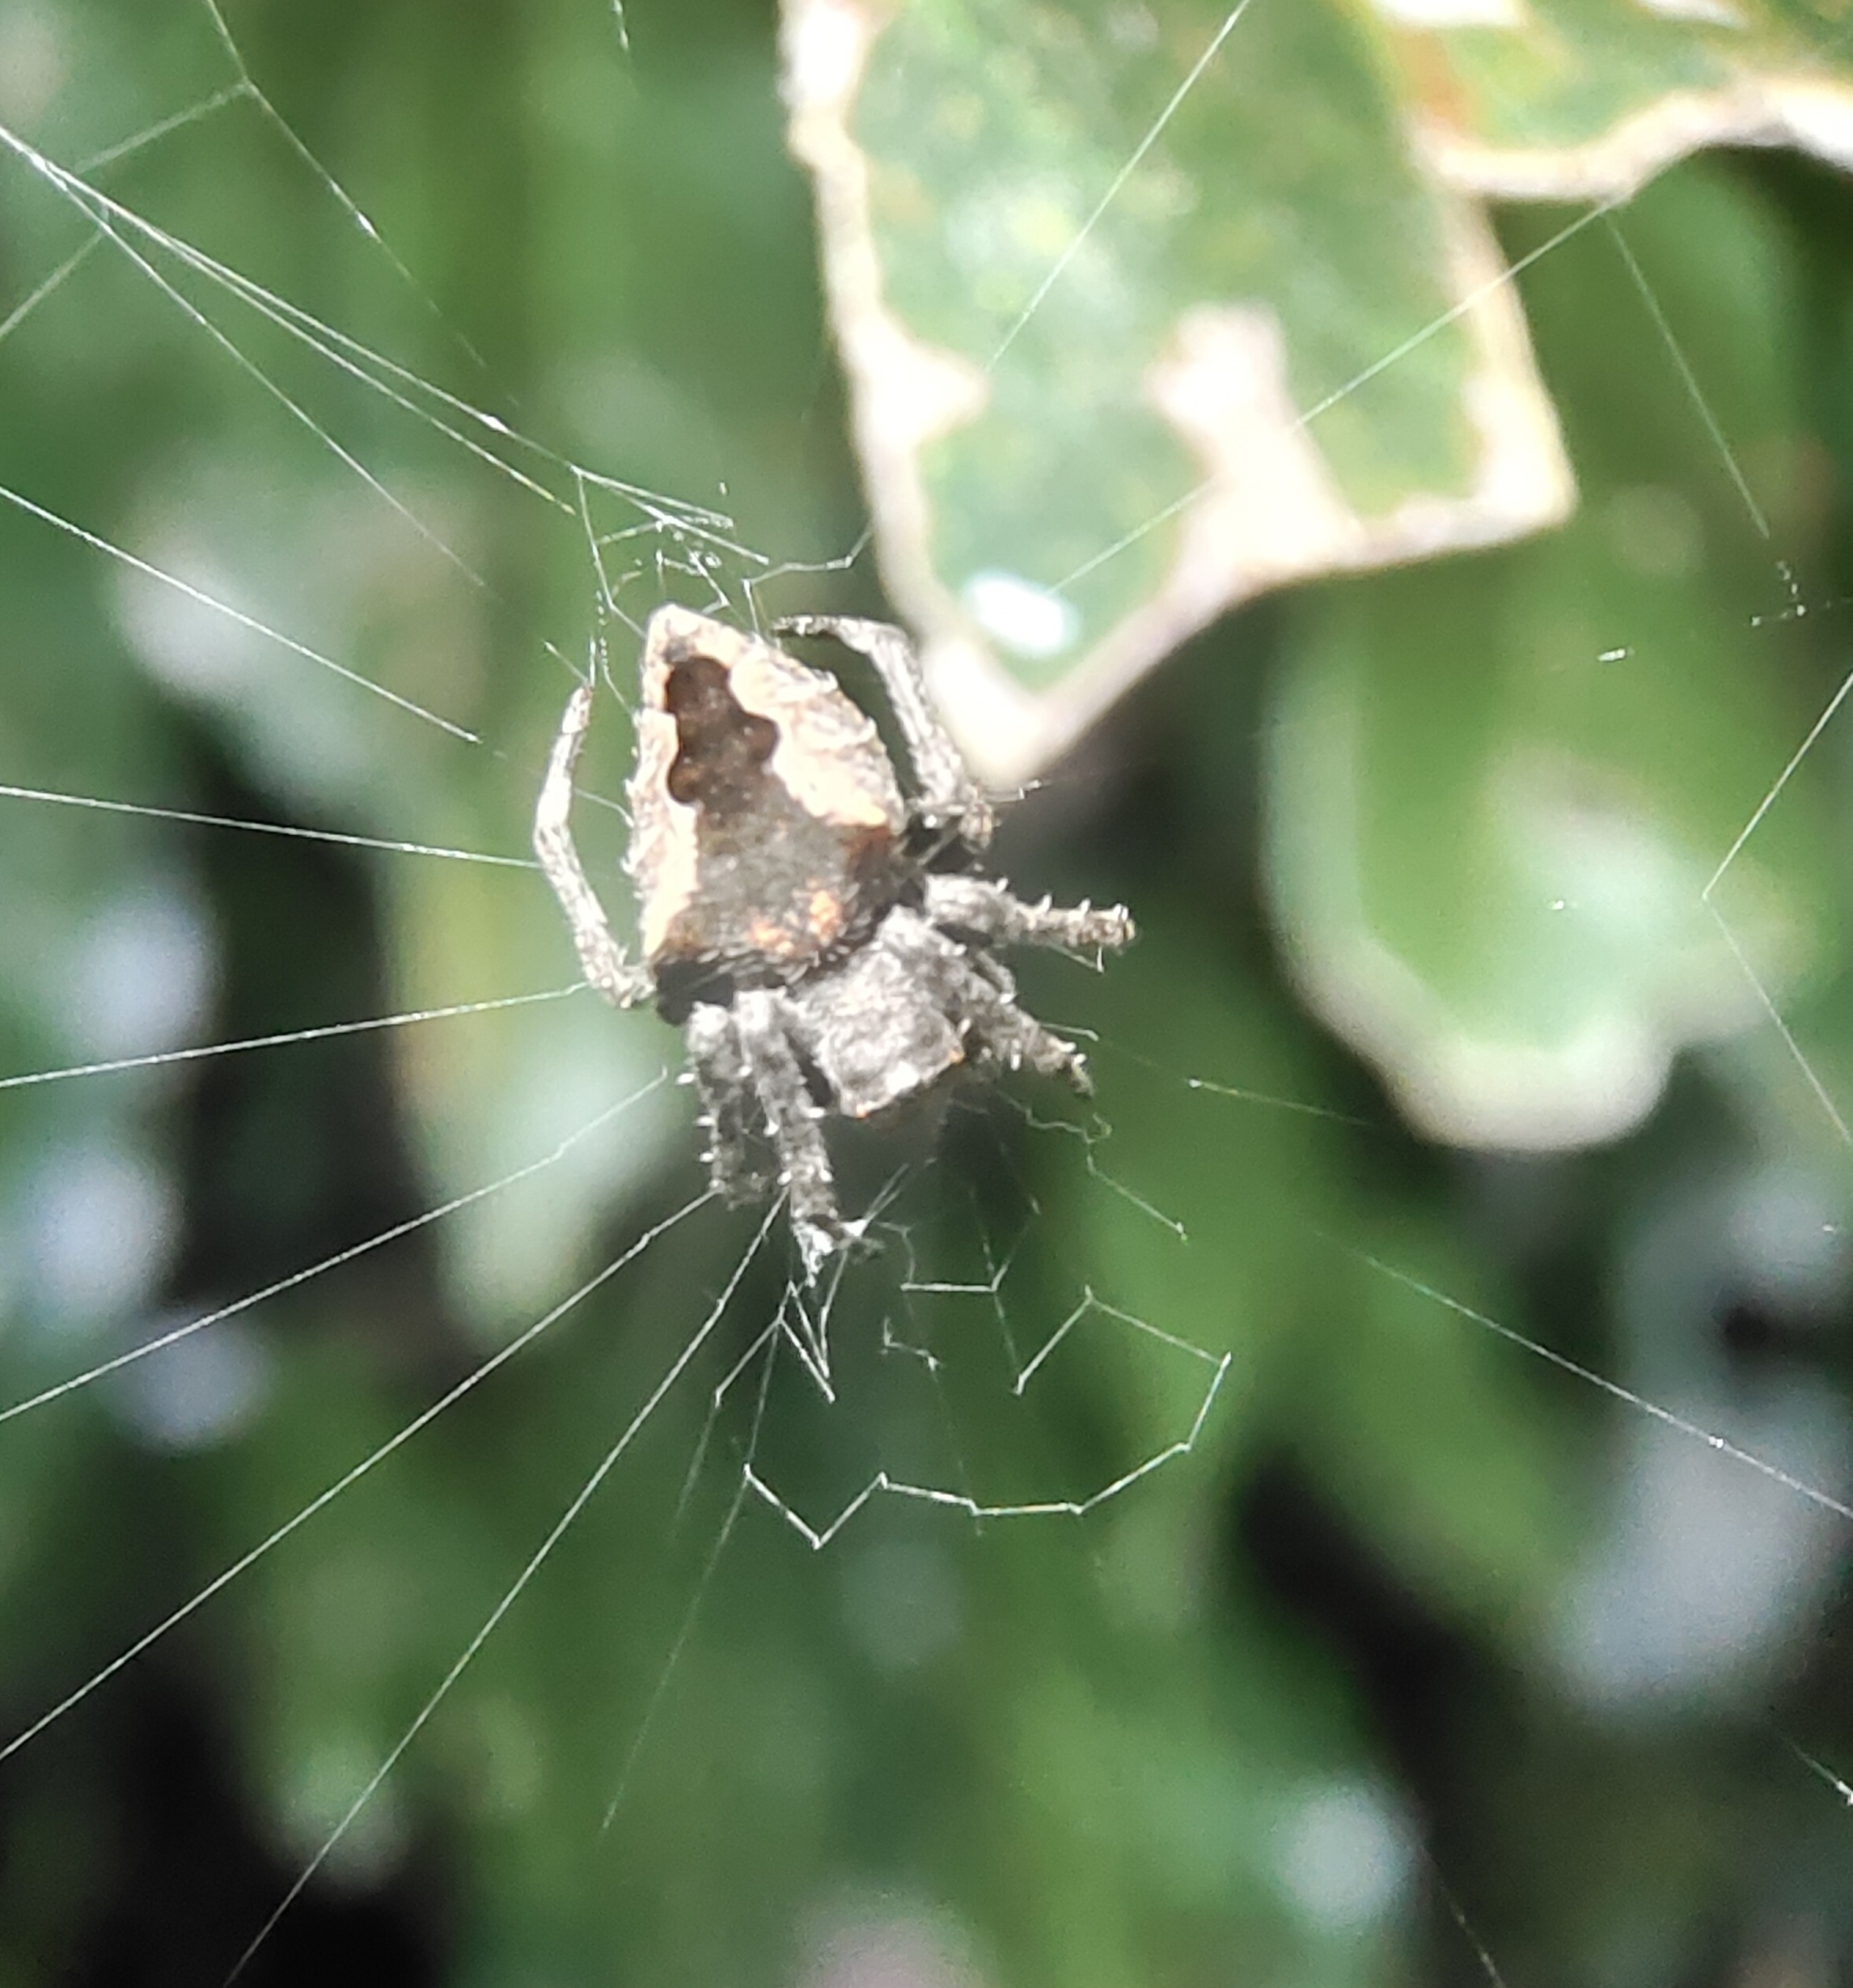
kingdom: Animalia
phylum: Arthropoda
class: Arachnida
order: Araneae
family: Araneidae
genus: Parawixia
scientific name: Parawixia dehaani
